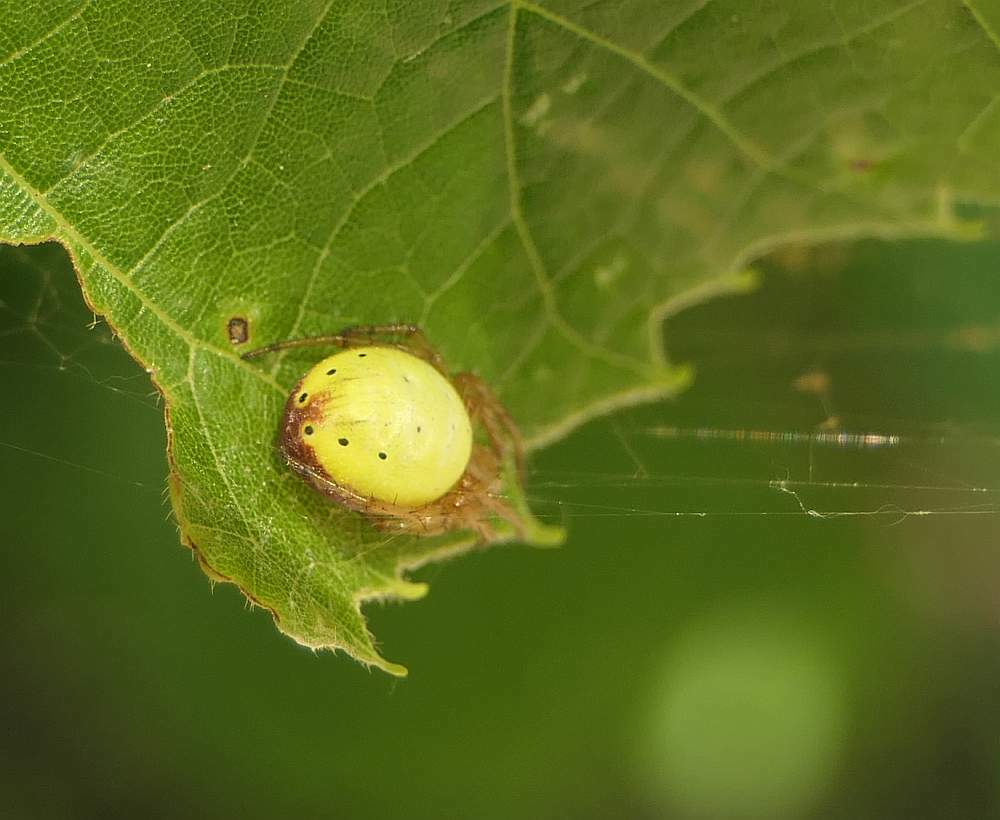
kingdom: Animalia
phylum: Arthropoda
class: Arachnida
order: Araneae
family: Araneidae
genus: Araniella
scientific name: Araniella displicata
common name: Sixspotted orb weaver
